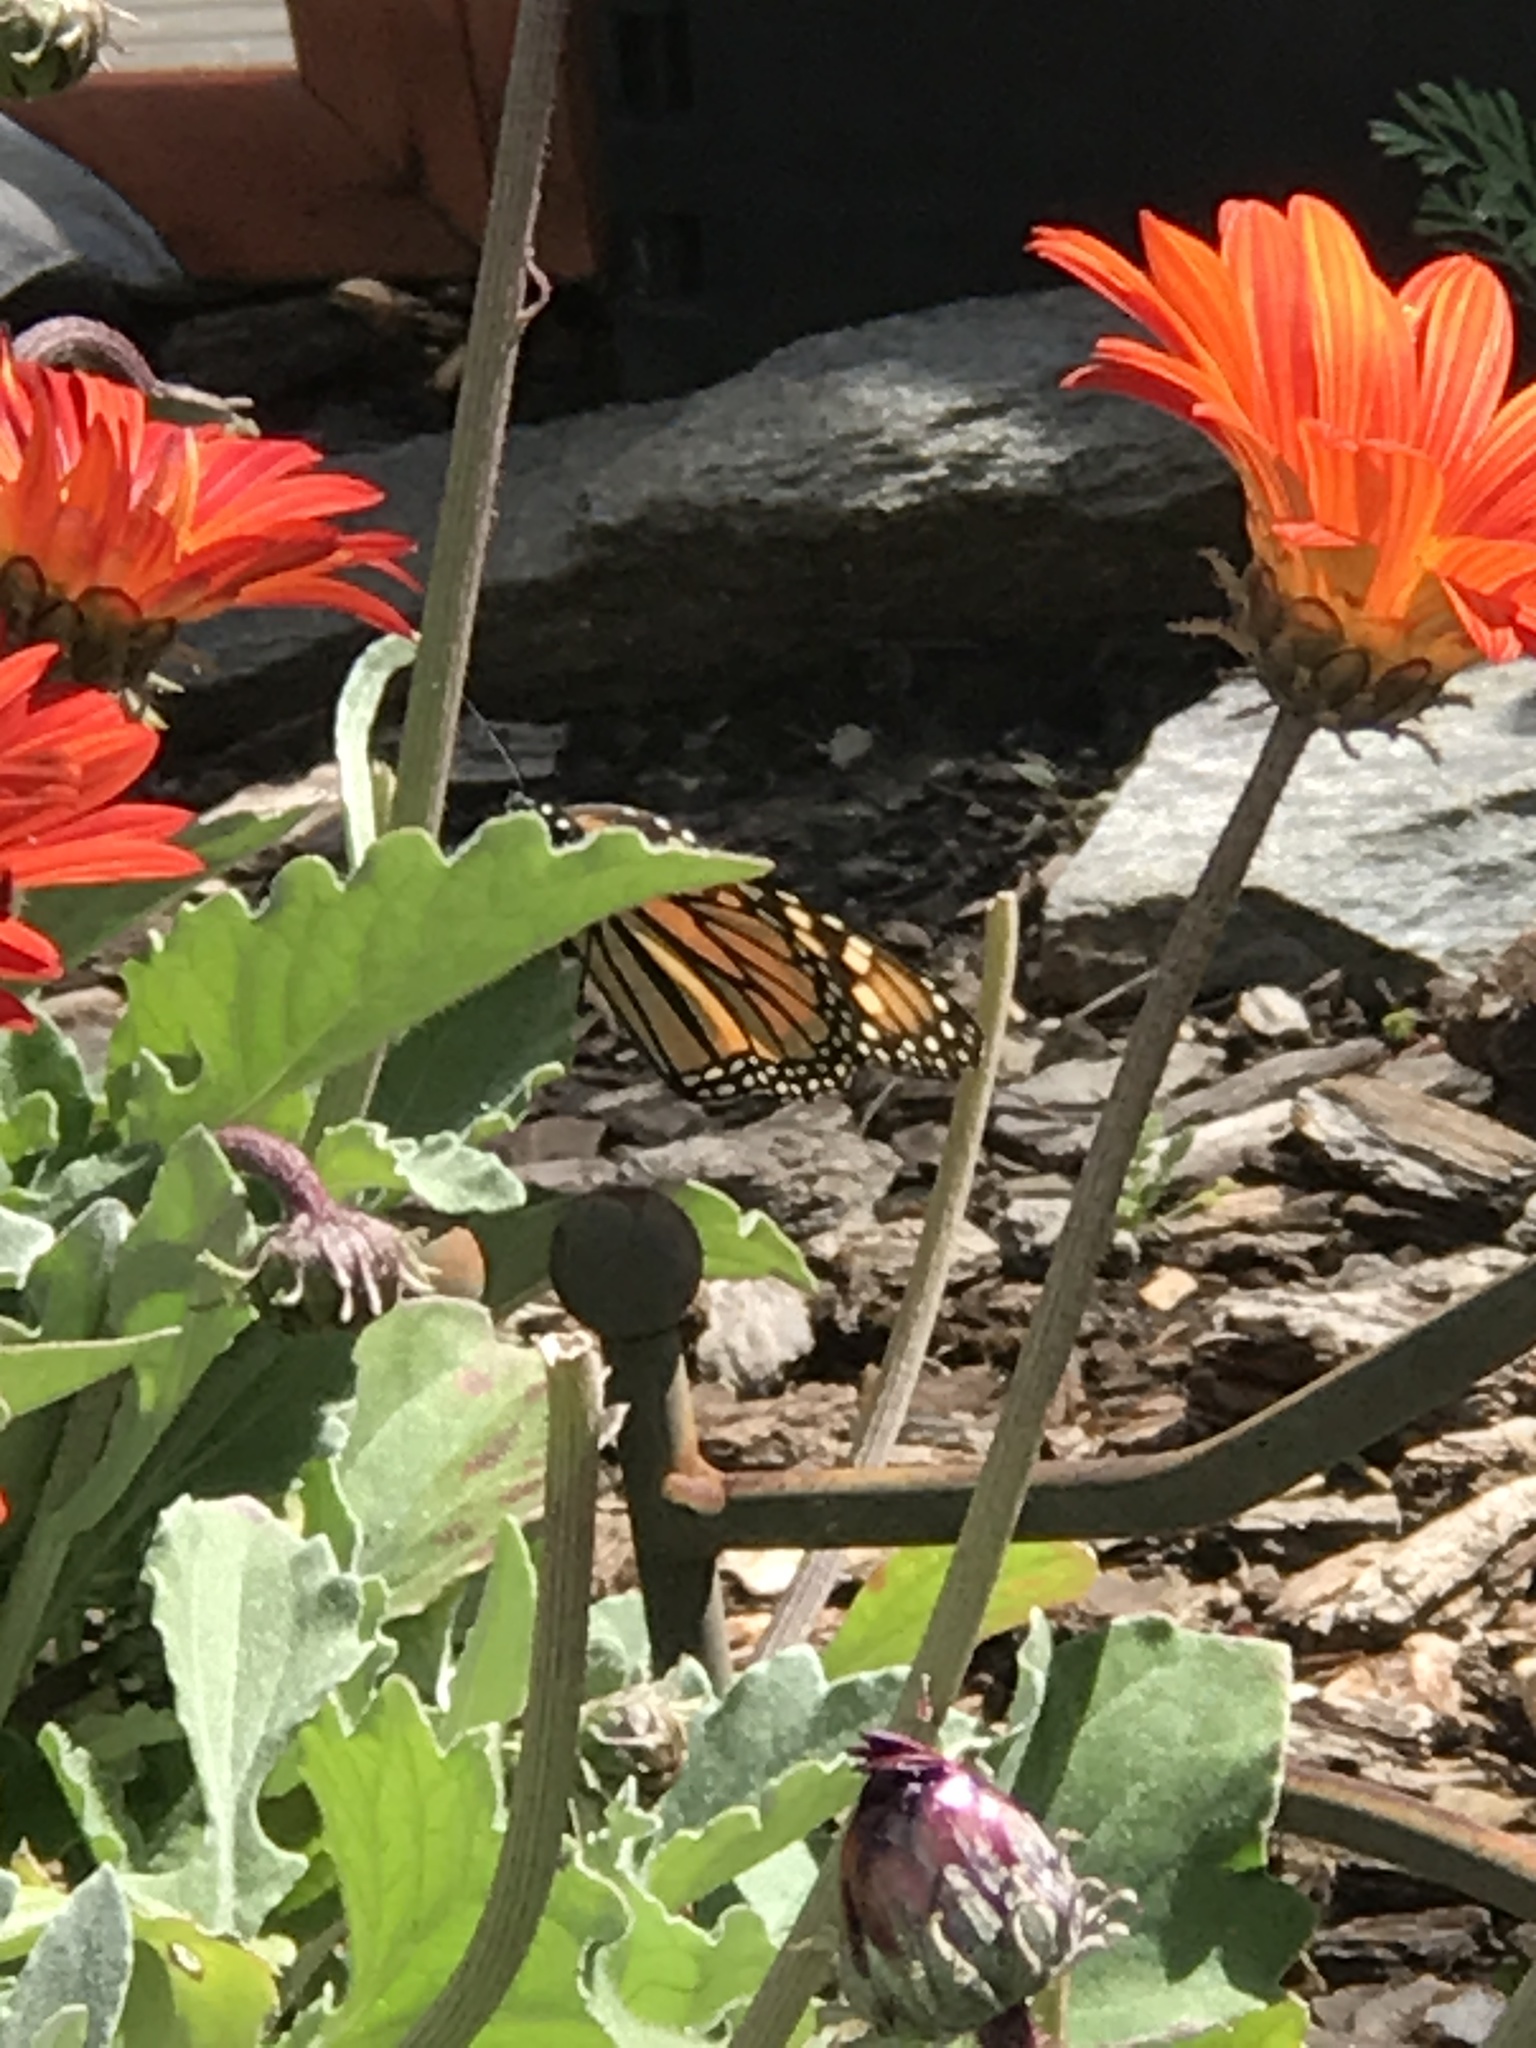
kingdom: Animalia
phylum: Arthropoda
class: Insecta
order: Lepidoptera
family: Nymphalidae
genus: Danaus
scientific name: Danaus plexippus
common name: Monarch
